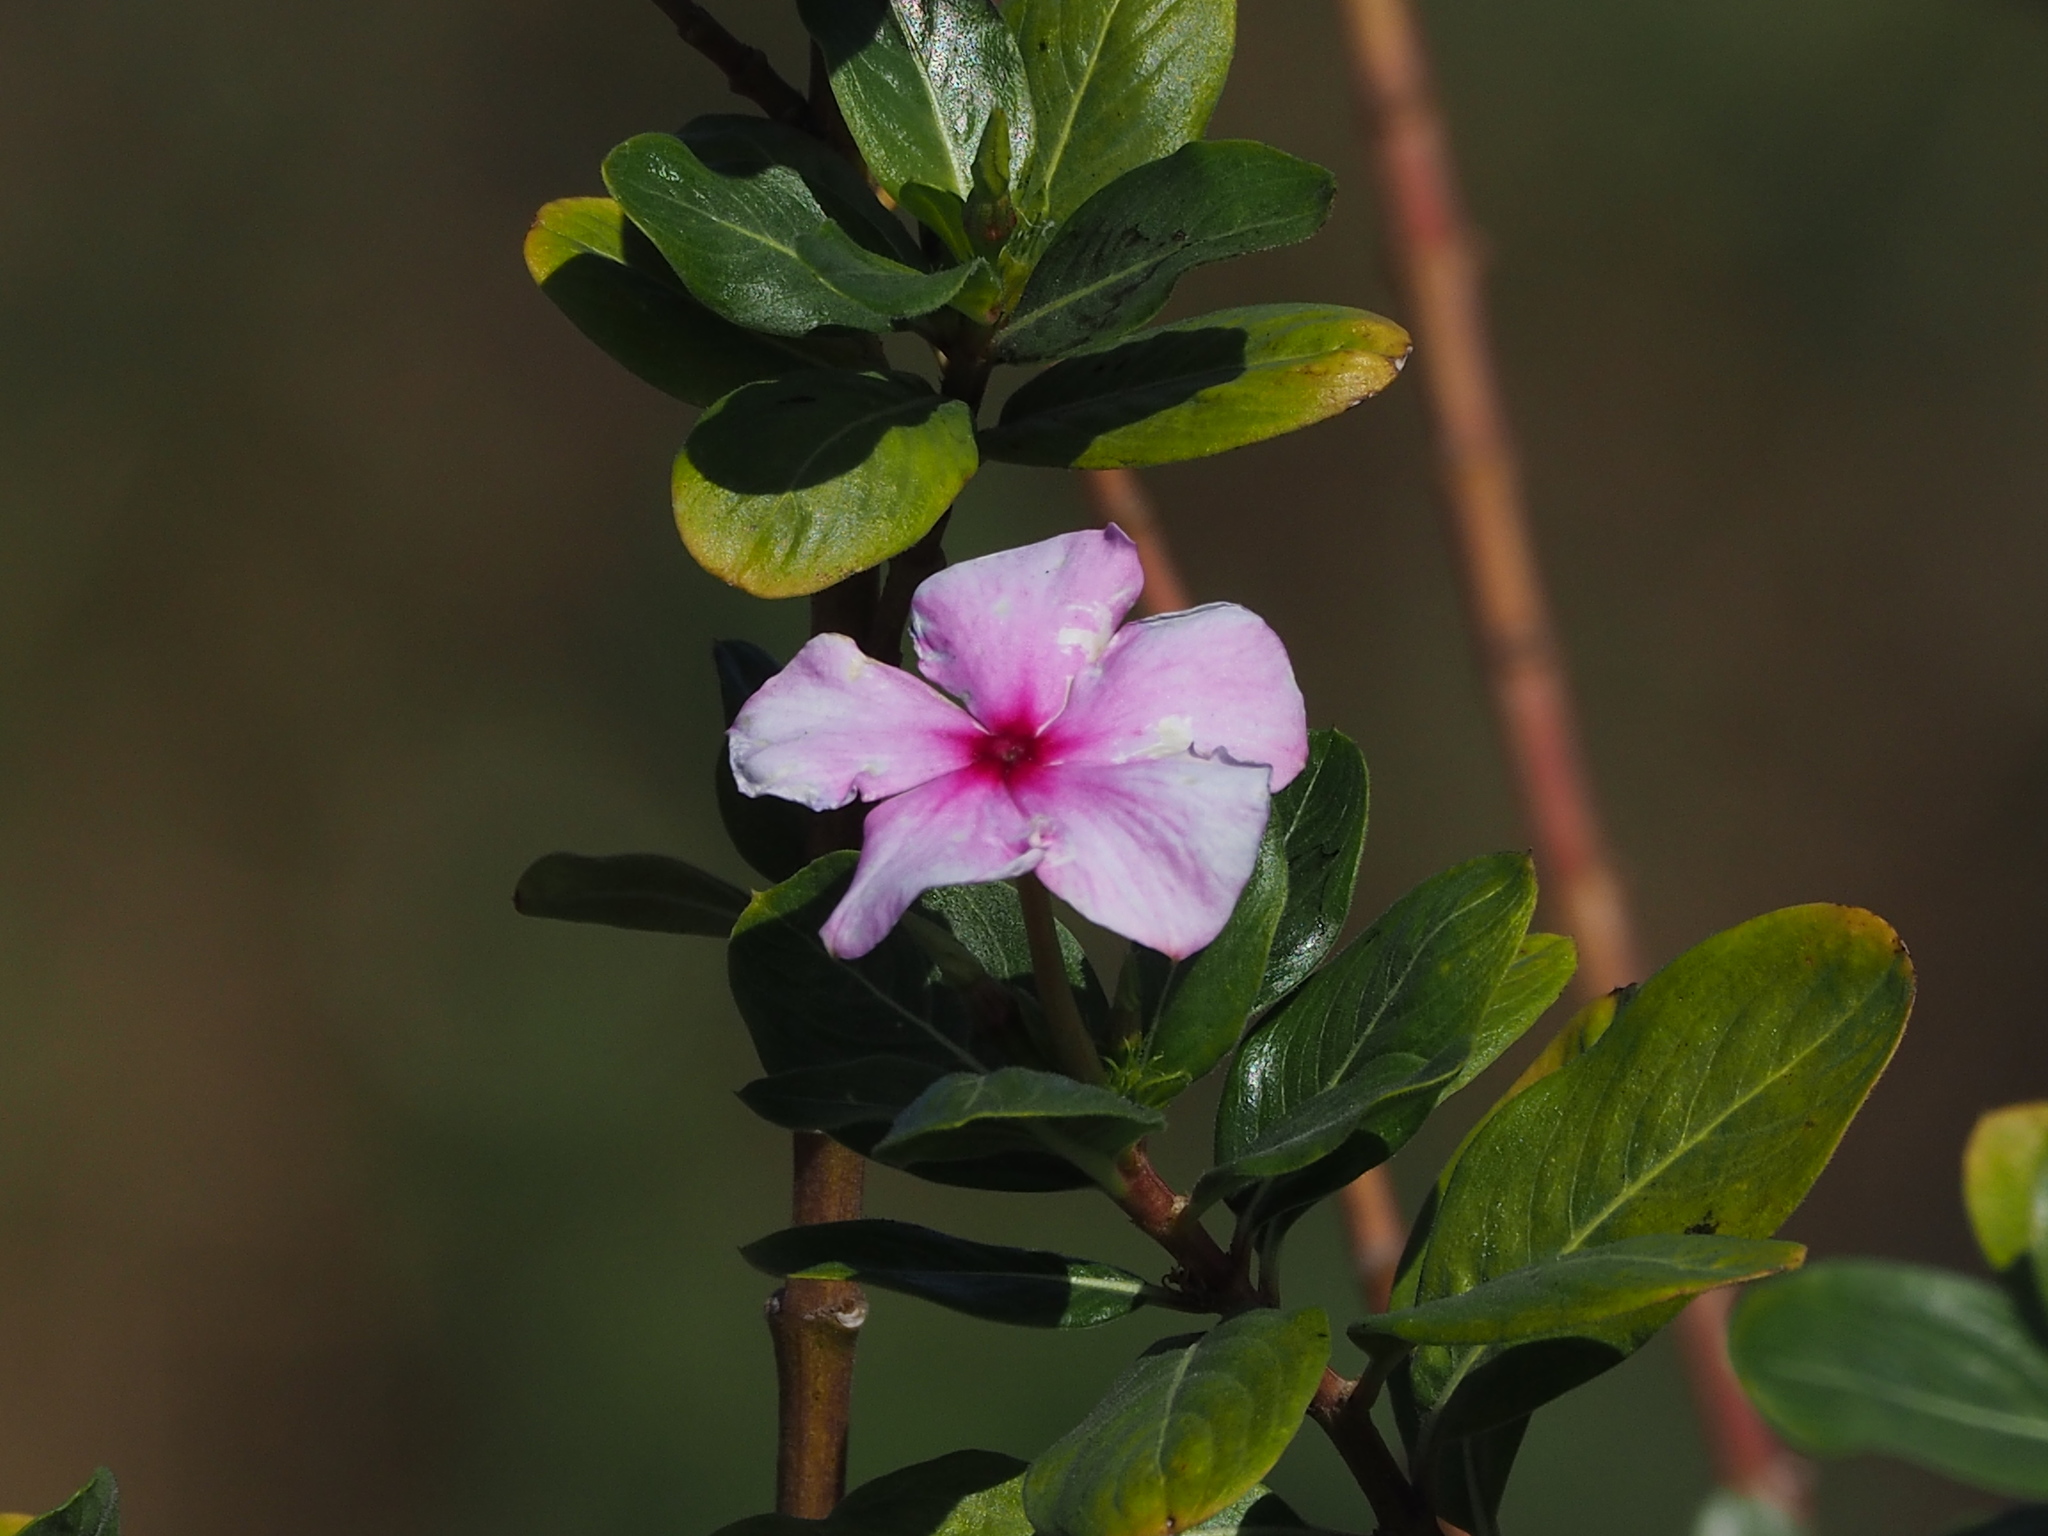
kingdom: Plantae
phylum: Tracheophyta
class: Magnoliopsida
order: Gentianales
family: Apocynaceae
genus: Catharanthus
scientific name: Catharanthus roseus
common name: Madagascar periwinkle
